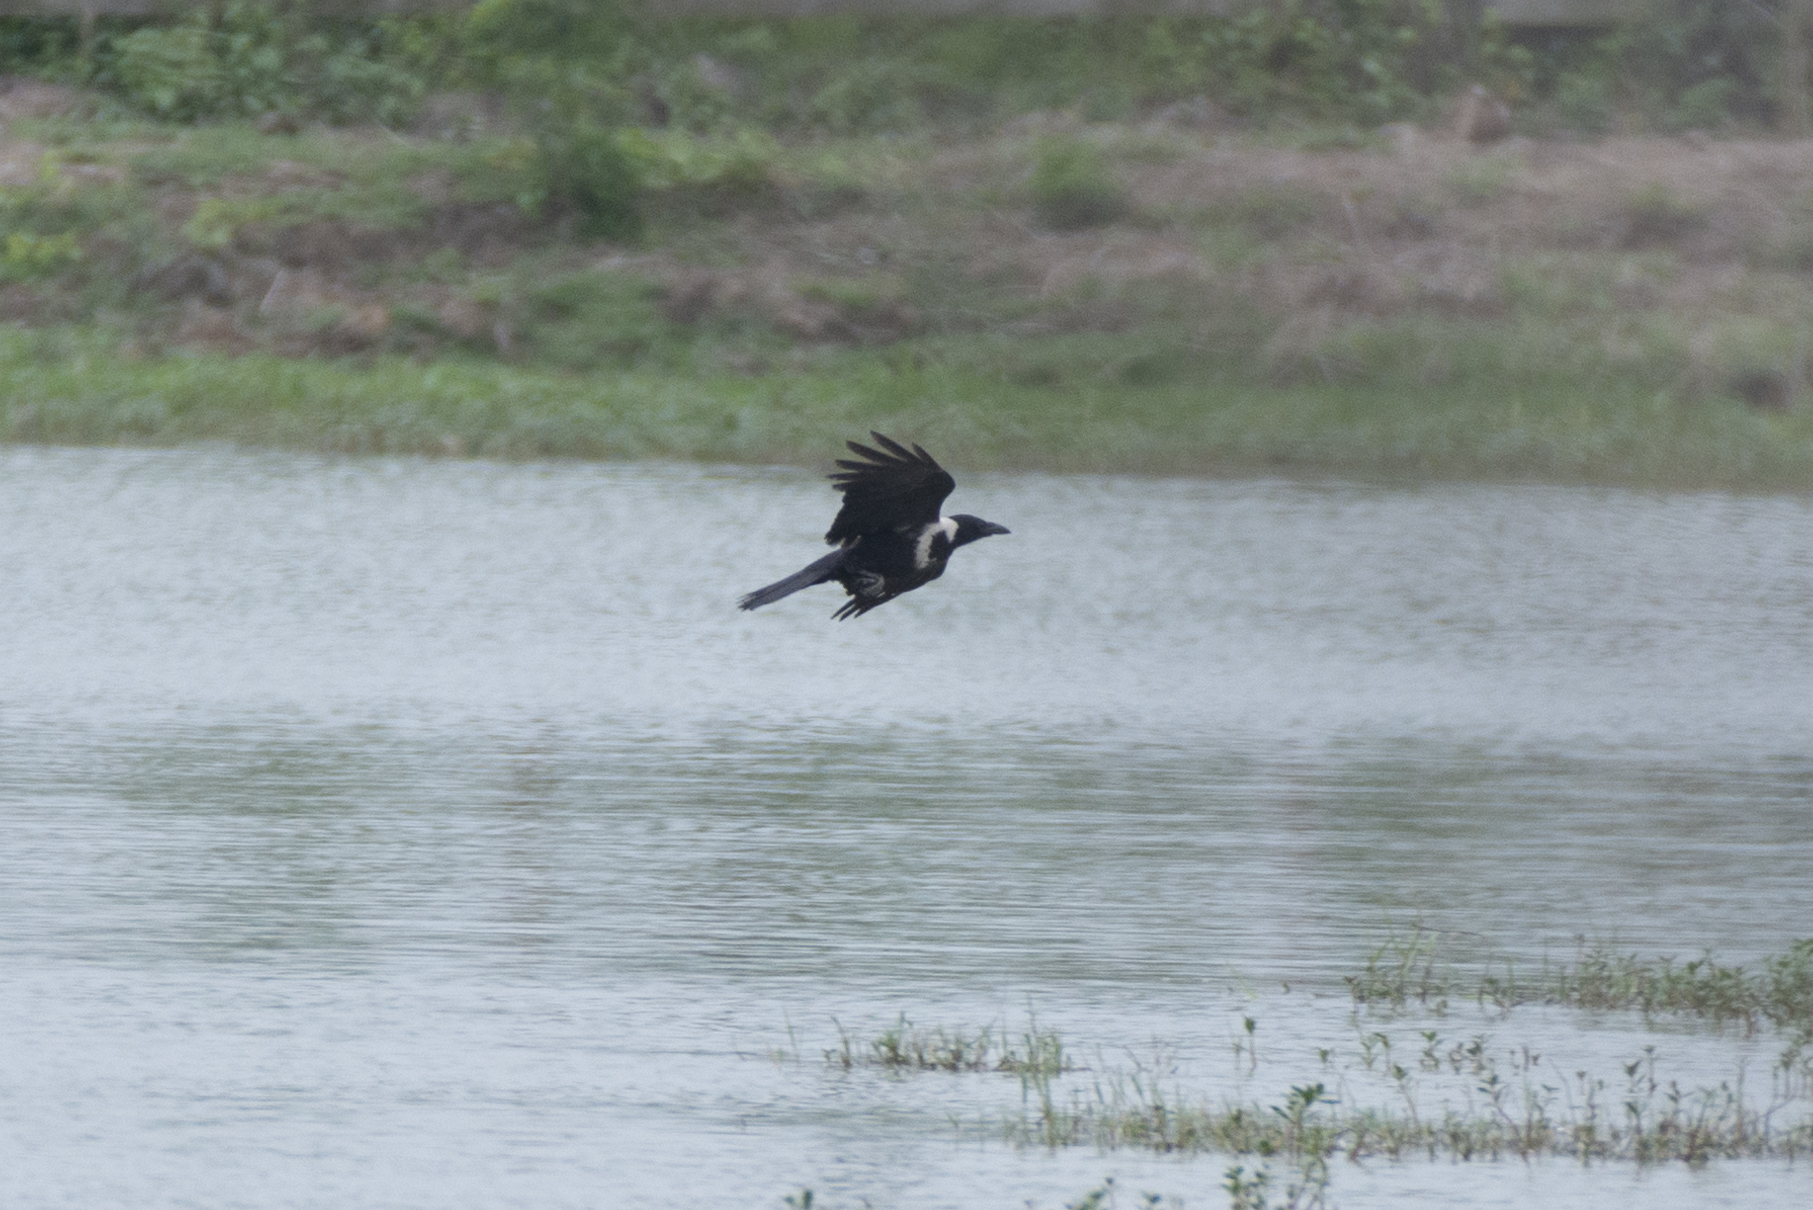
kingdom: Animalia
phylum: Chordata
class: Aves
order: Passeriformes
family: Corvidae
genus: Corvus
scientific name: Corvus pectoralis
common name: Collared crow
